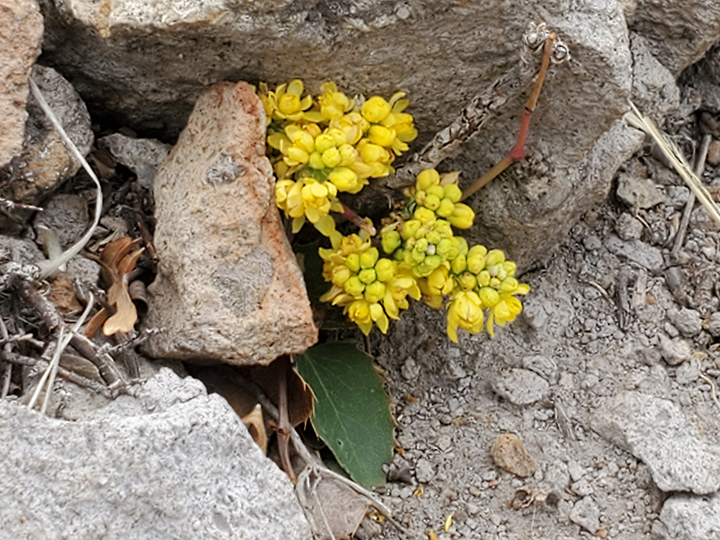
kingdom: Plantae
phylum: Tracheophyta
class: Magnoliopsida
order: Ranunculales
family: Berberidaceae
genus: Mahonia
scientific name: Mahonia repens
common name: Creeping oregon-grape
